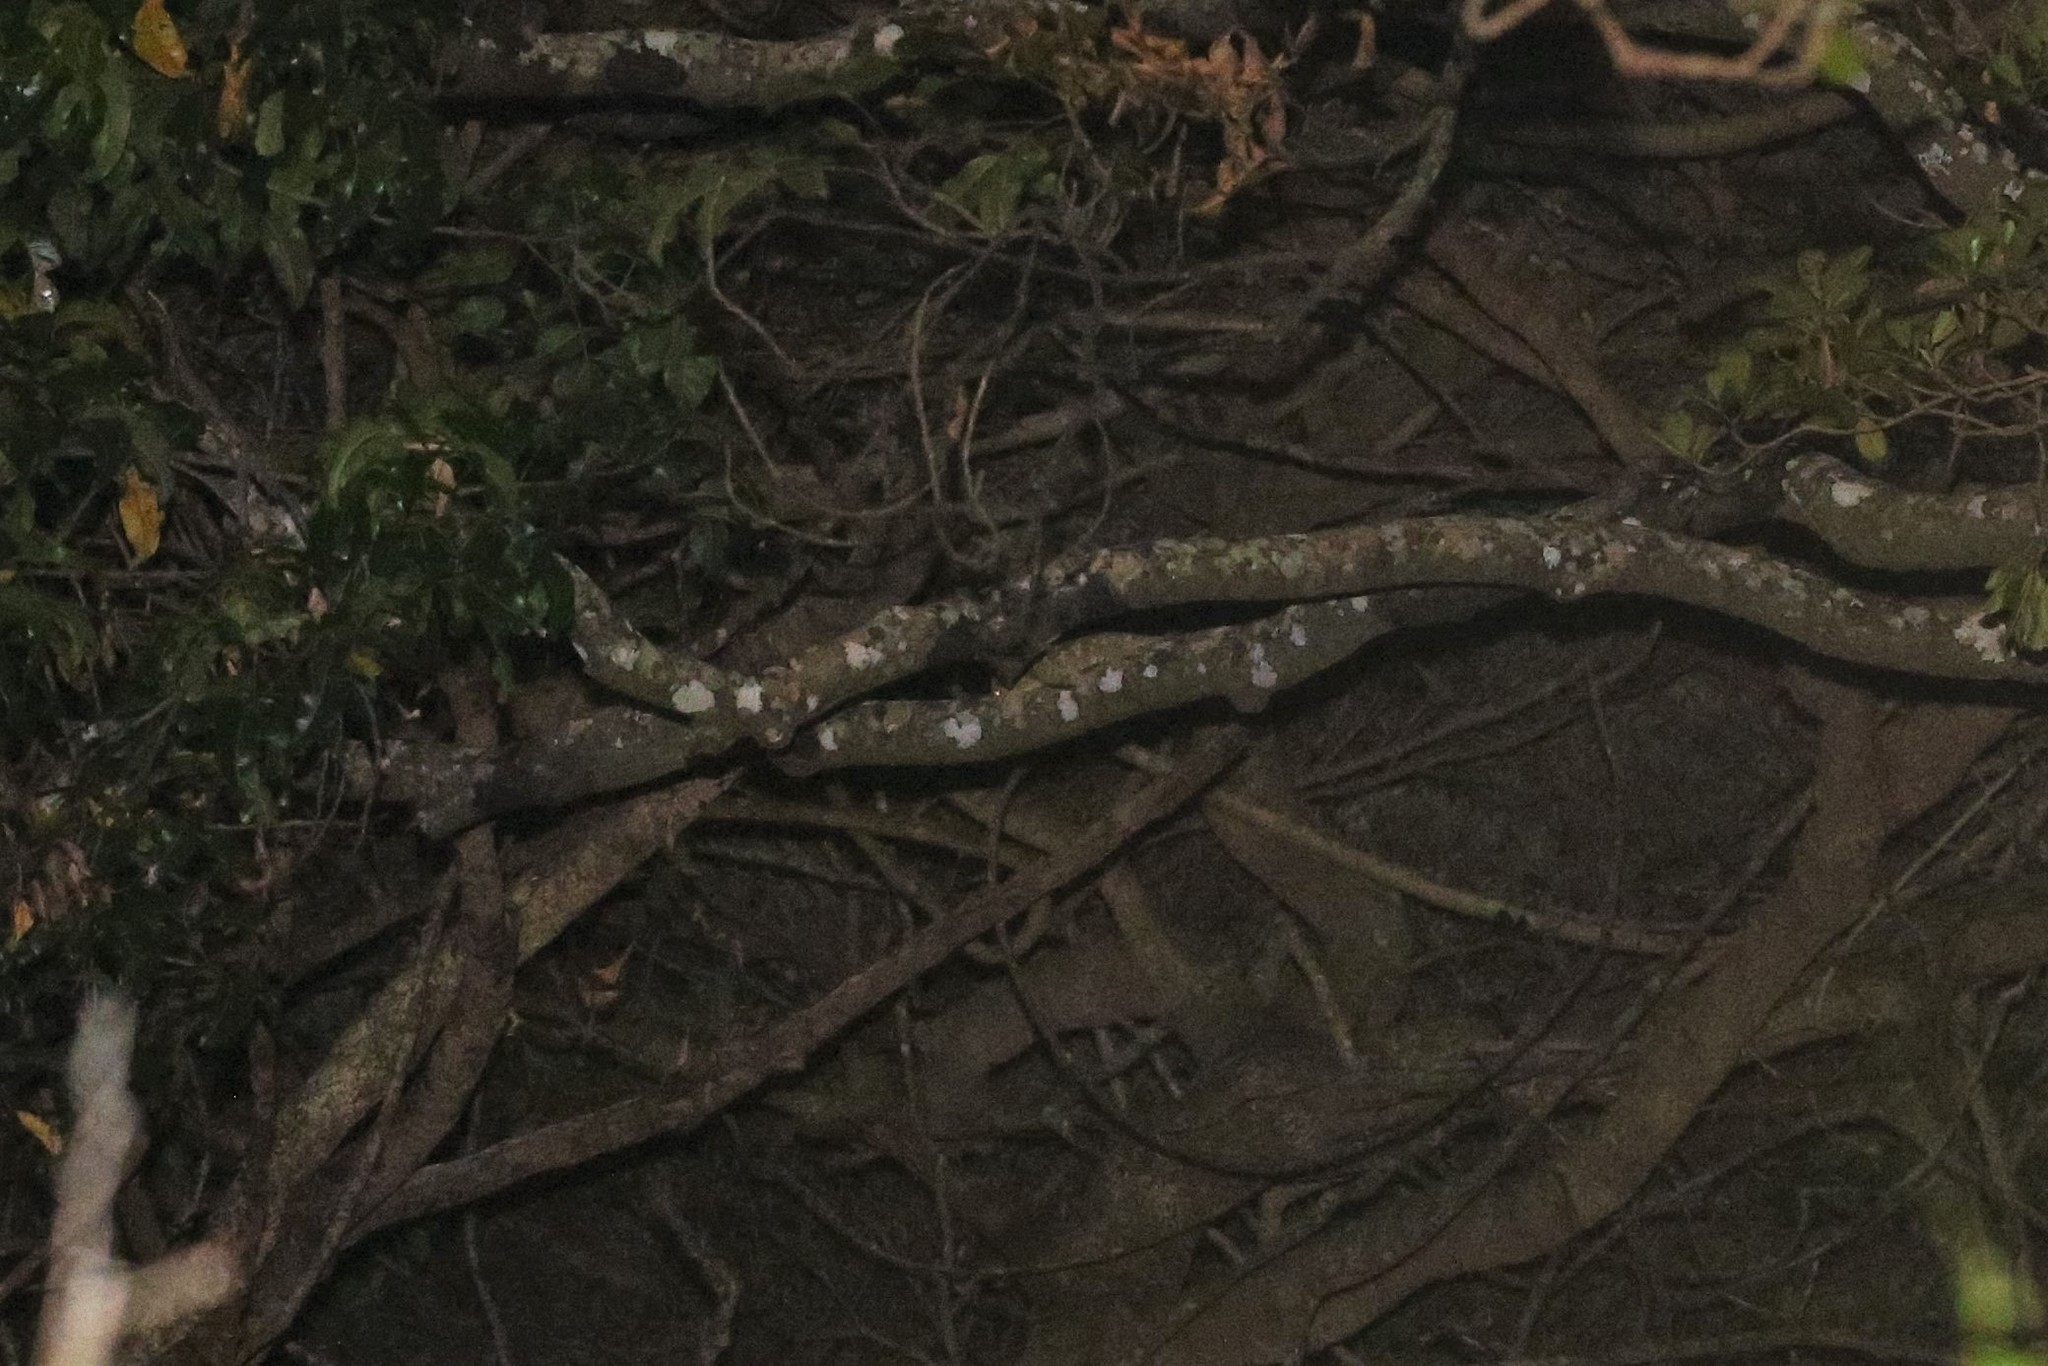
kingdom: Animalia
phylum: Chordata
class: Squamata
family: Diplodactylidae
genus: Rhacodactylus
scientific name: Rhacodactylus leachianus
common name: New caledonia giant gecko
